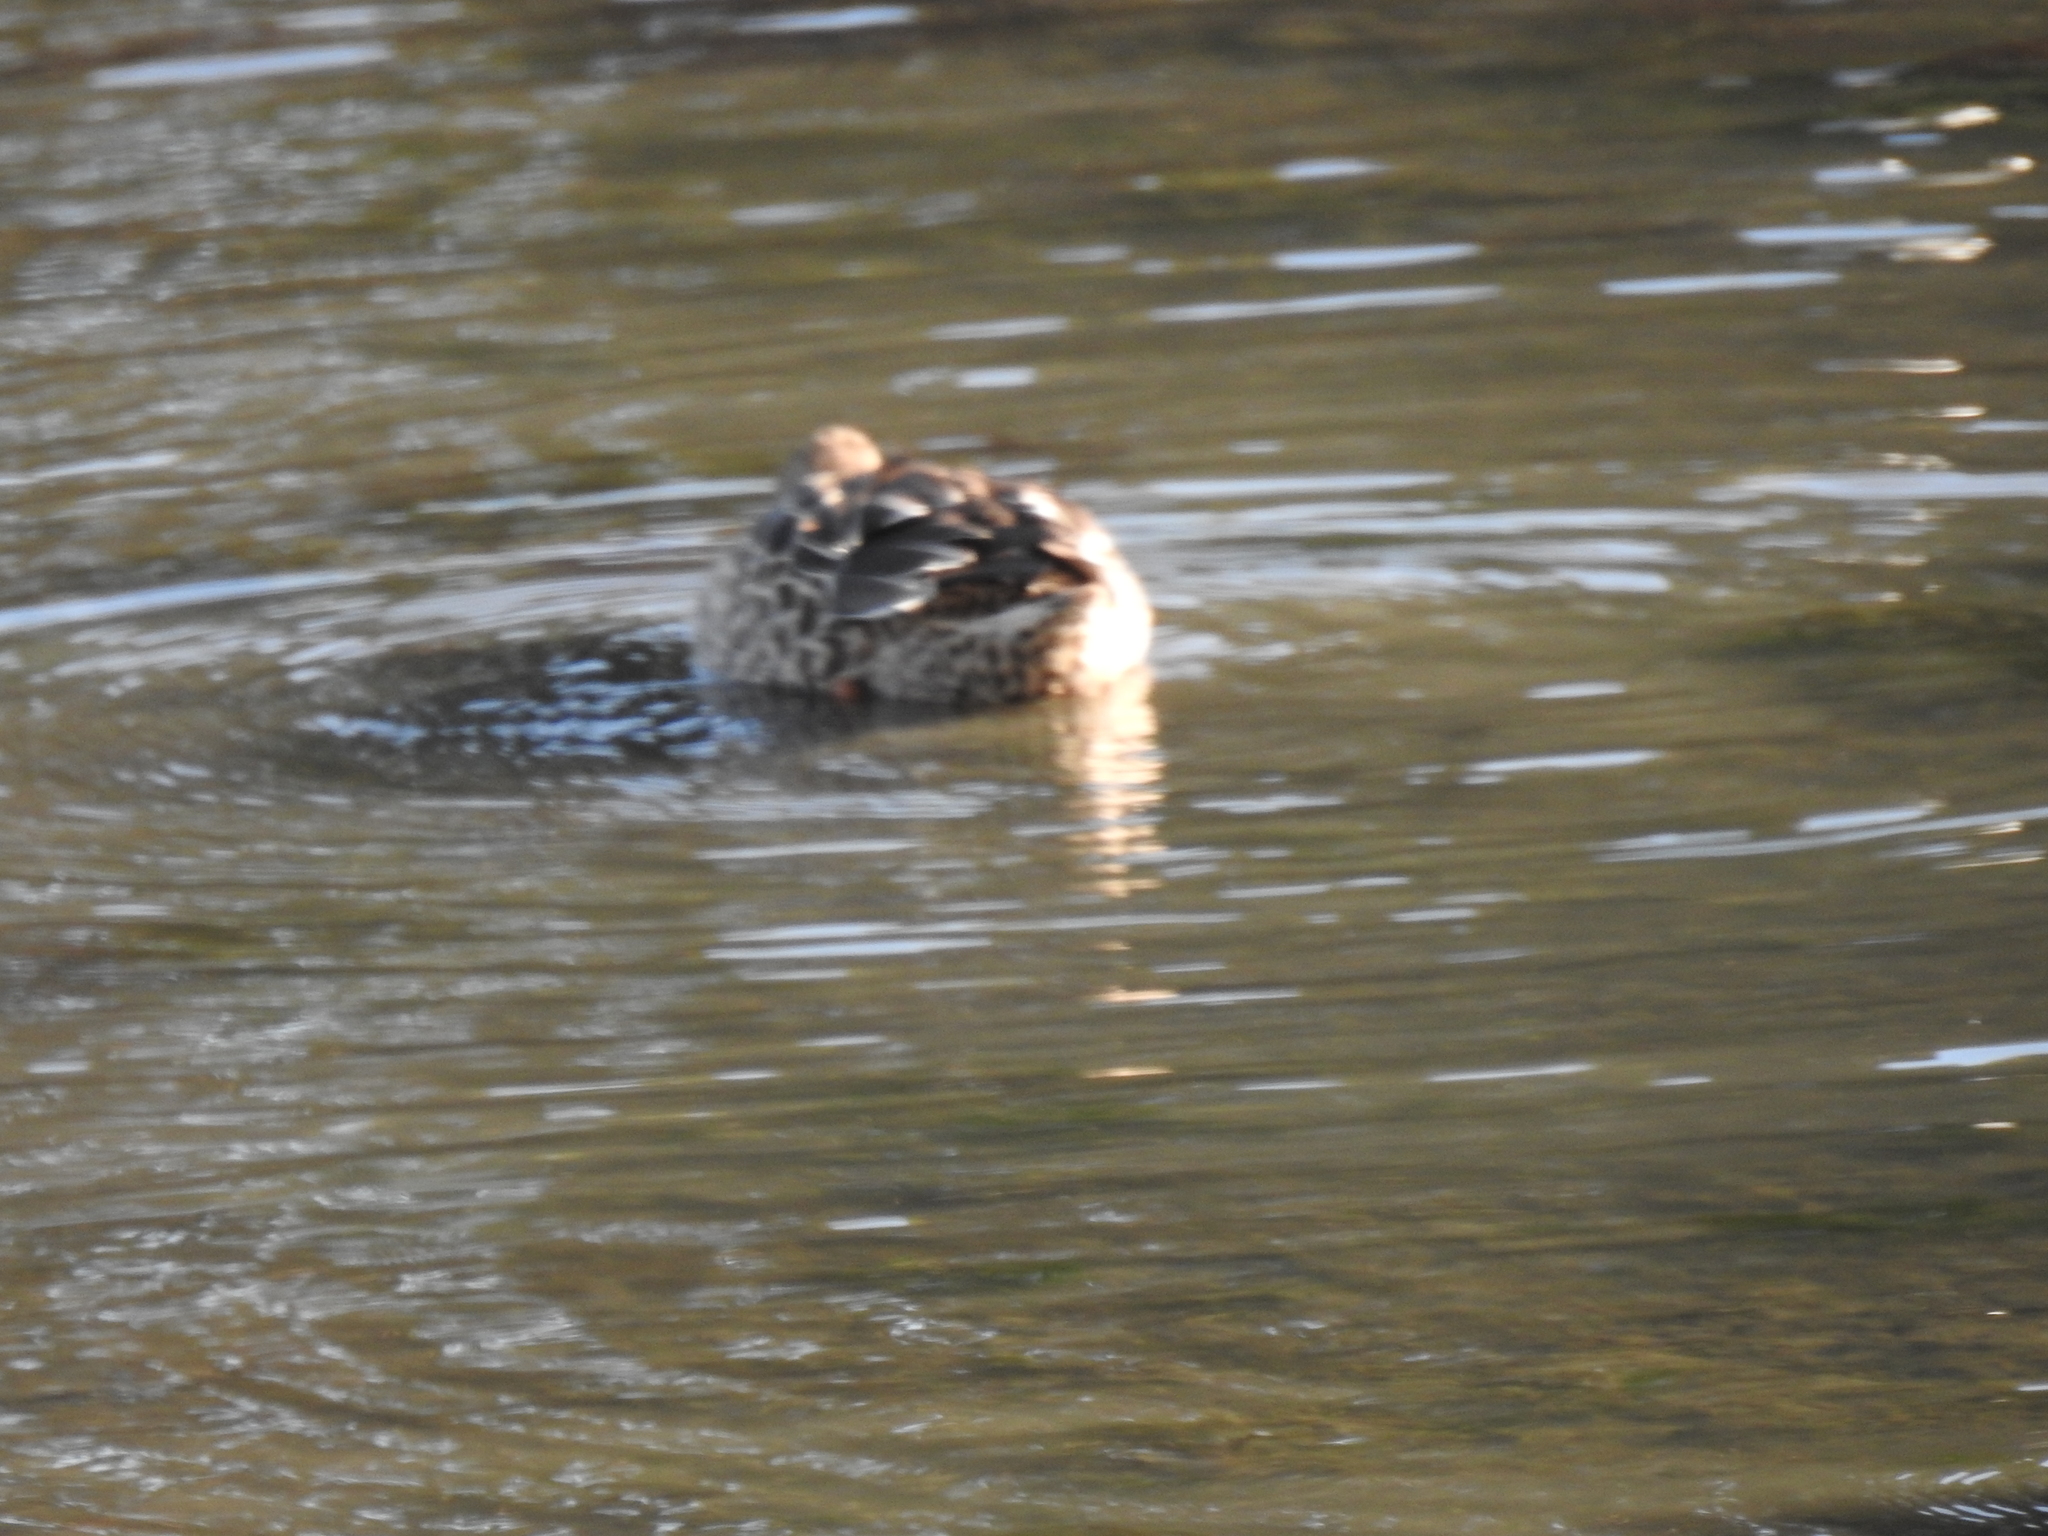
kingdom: Animalia
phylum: Chordata
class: Aves
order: Anseriformes
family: Anatidae
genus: Spatula
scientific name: Spatula clypeata
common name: Northern shoveler
